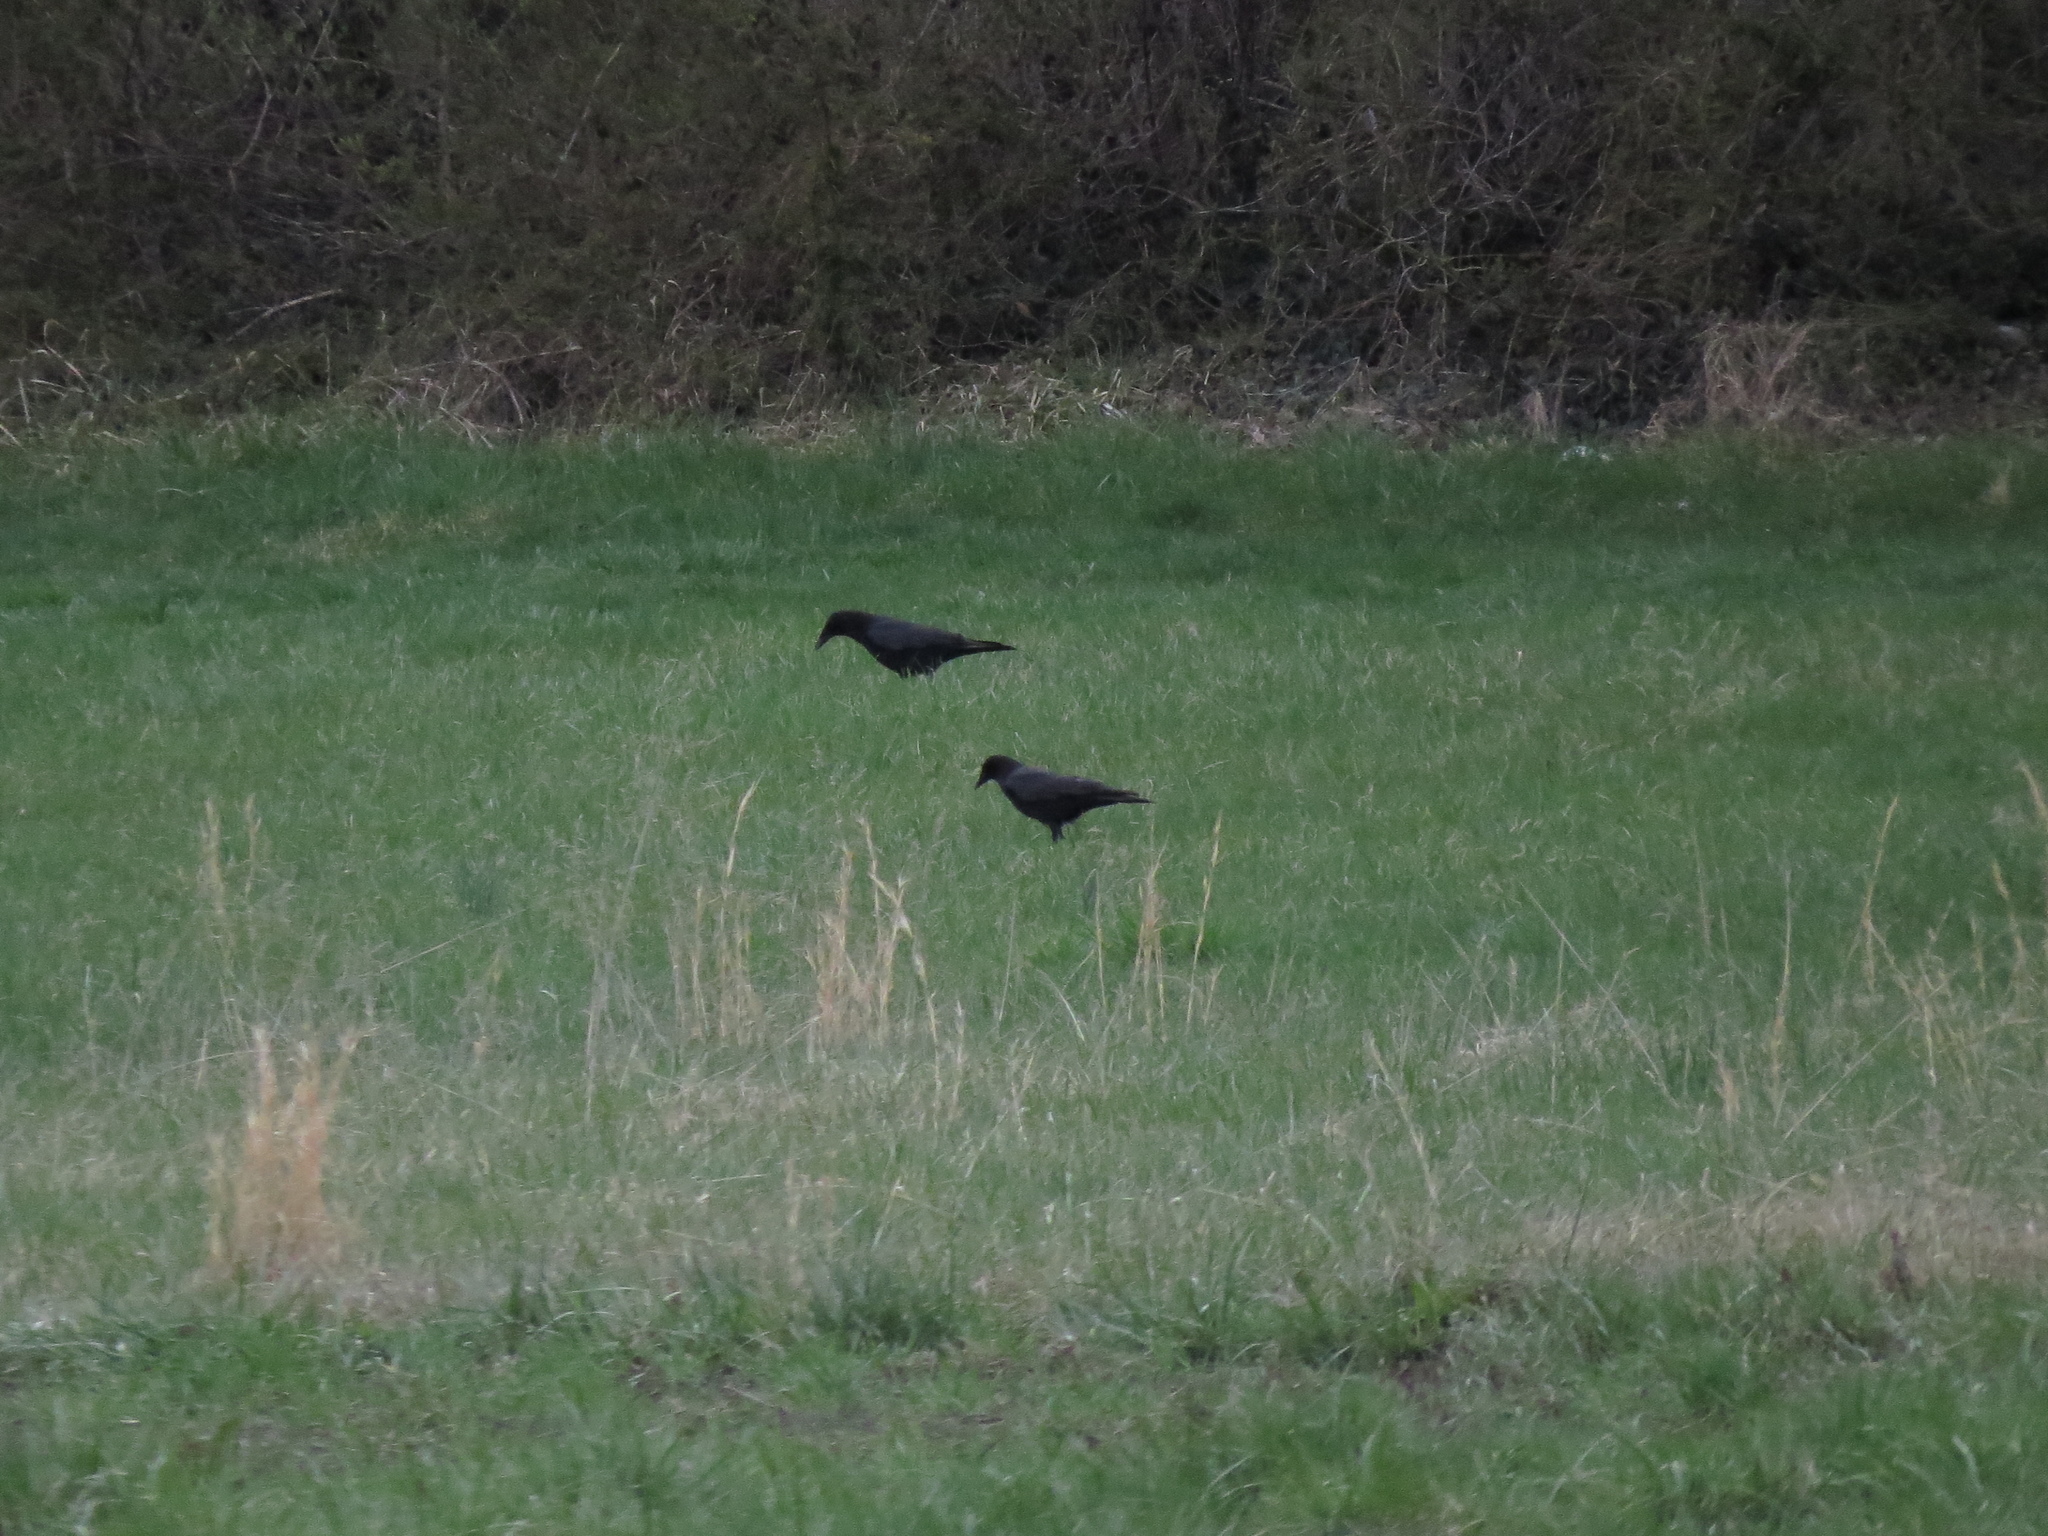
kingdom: Animalia
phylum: Chordata
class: Aves
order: Passeriformes
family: Corvidae
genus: Corvus
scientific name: Corvus brachyrhynchos
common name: American crow
